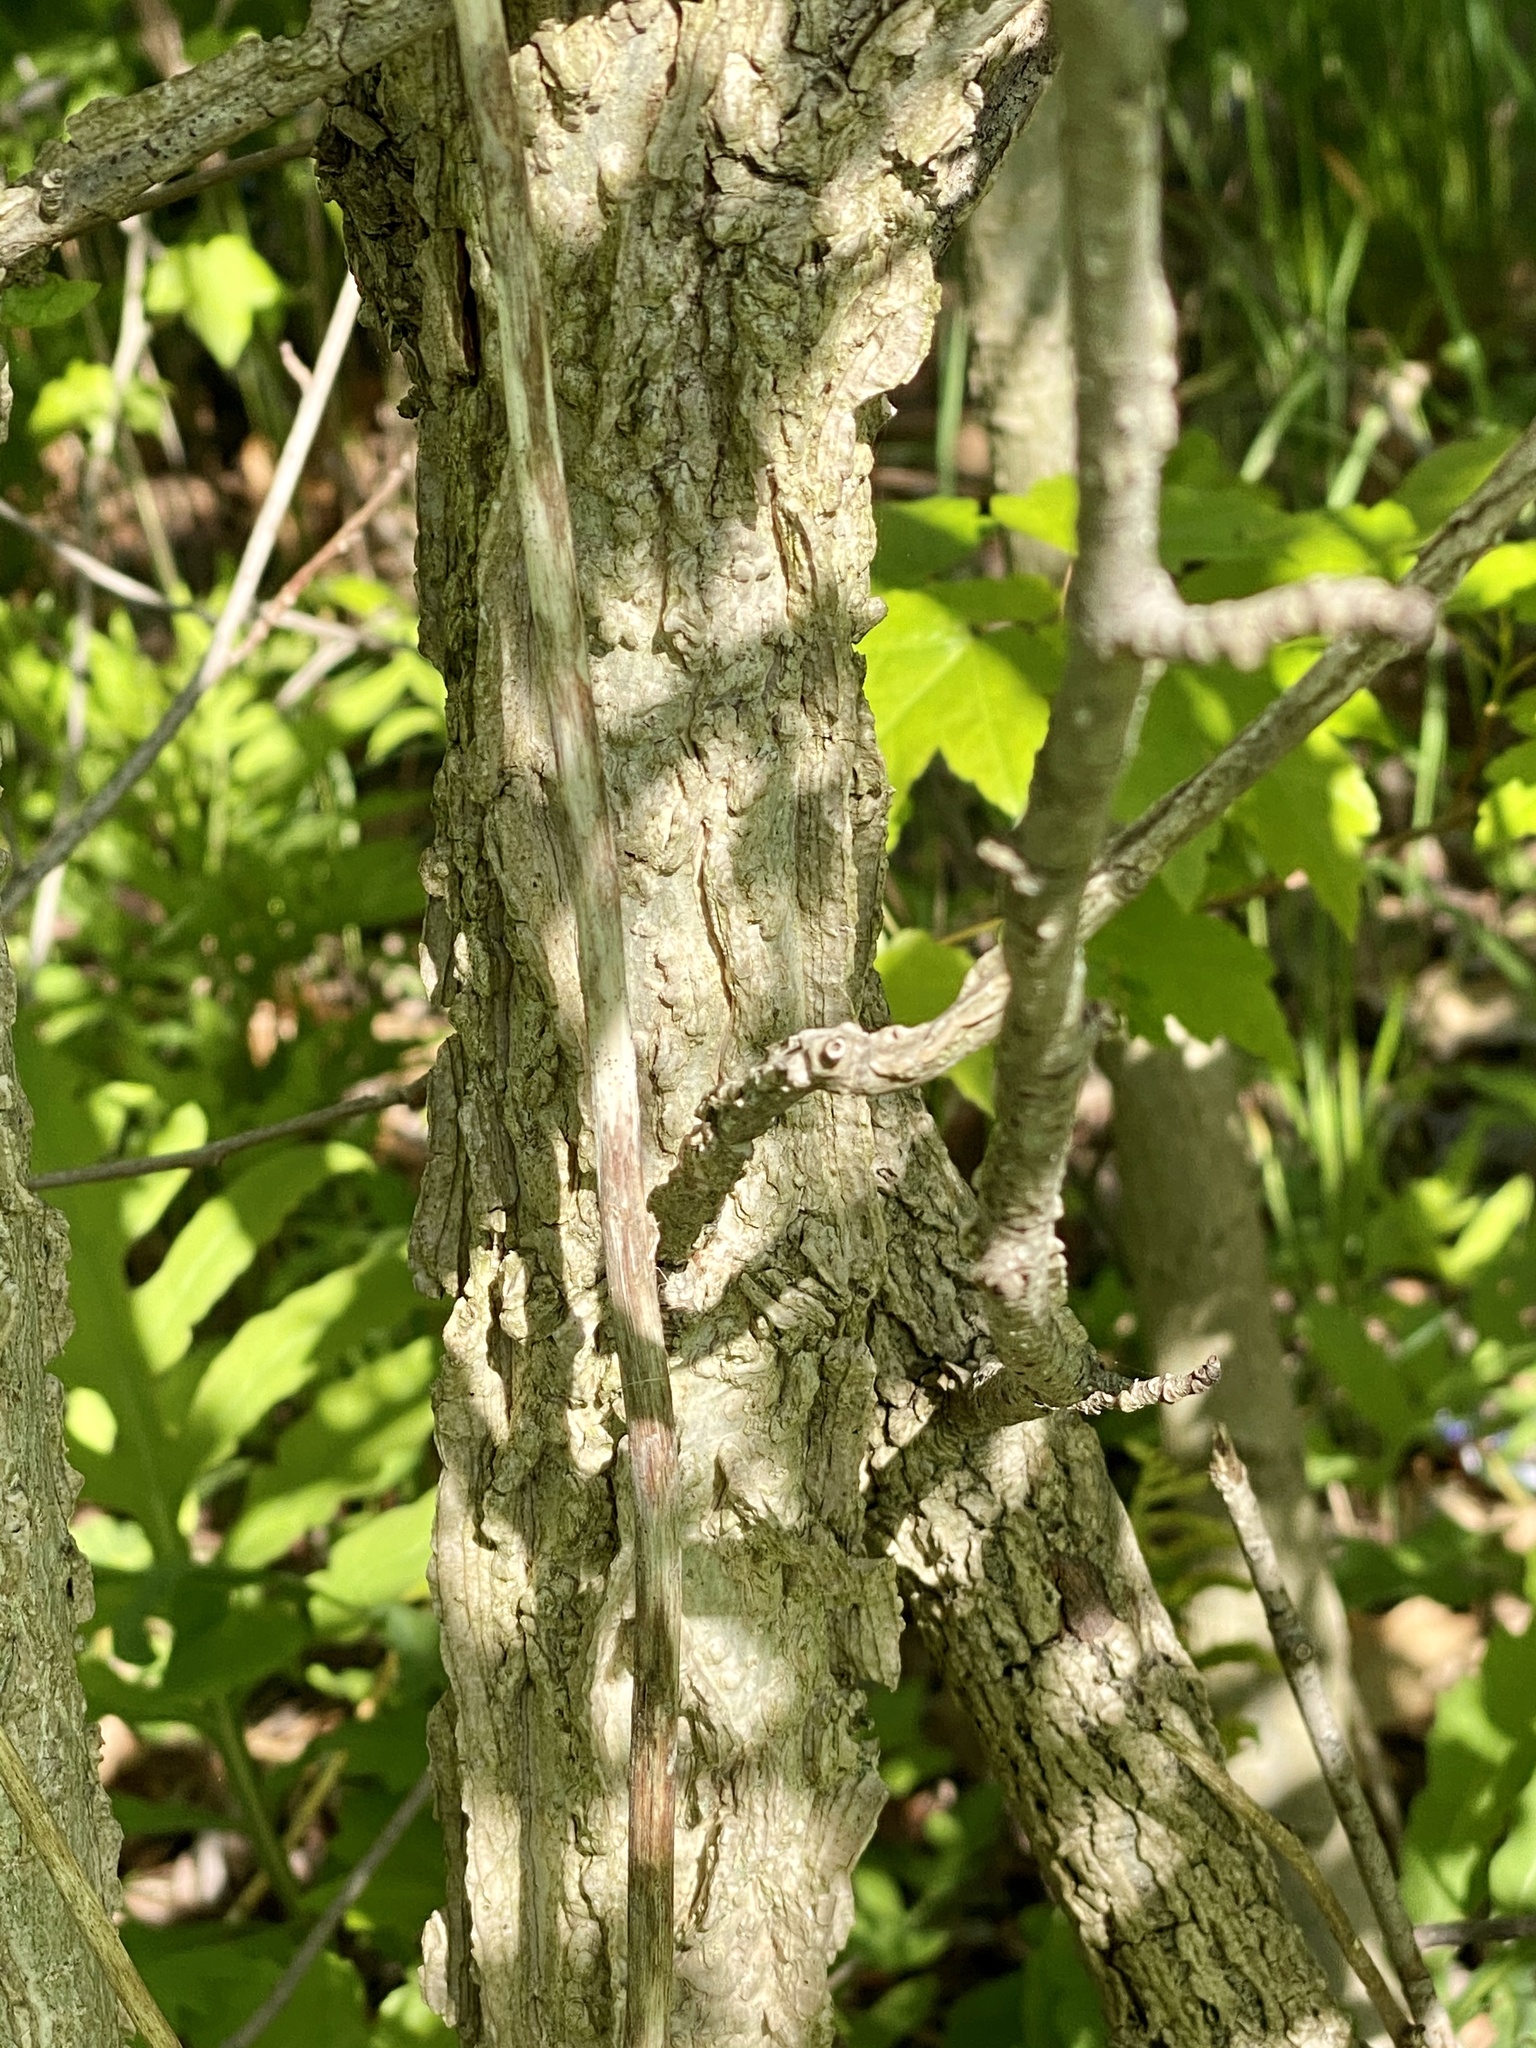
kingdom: Plantae
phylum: Tracheophyta
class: Magnoliopsida
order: Saxifragales
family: Altingiaceae
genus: Liquidambar
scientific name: Liquidambar styraciflua
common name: Sweet gum
